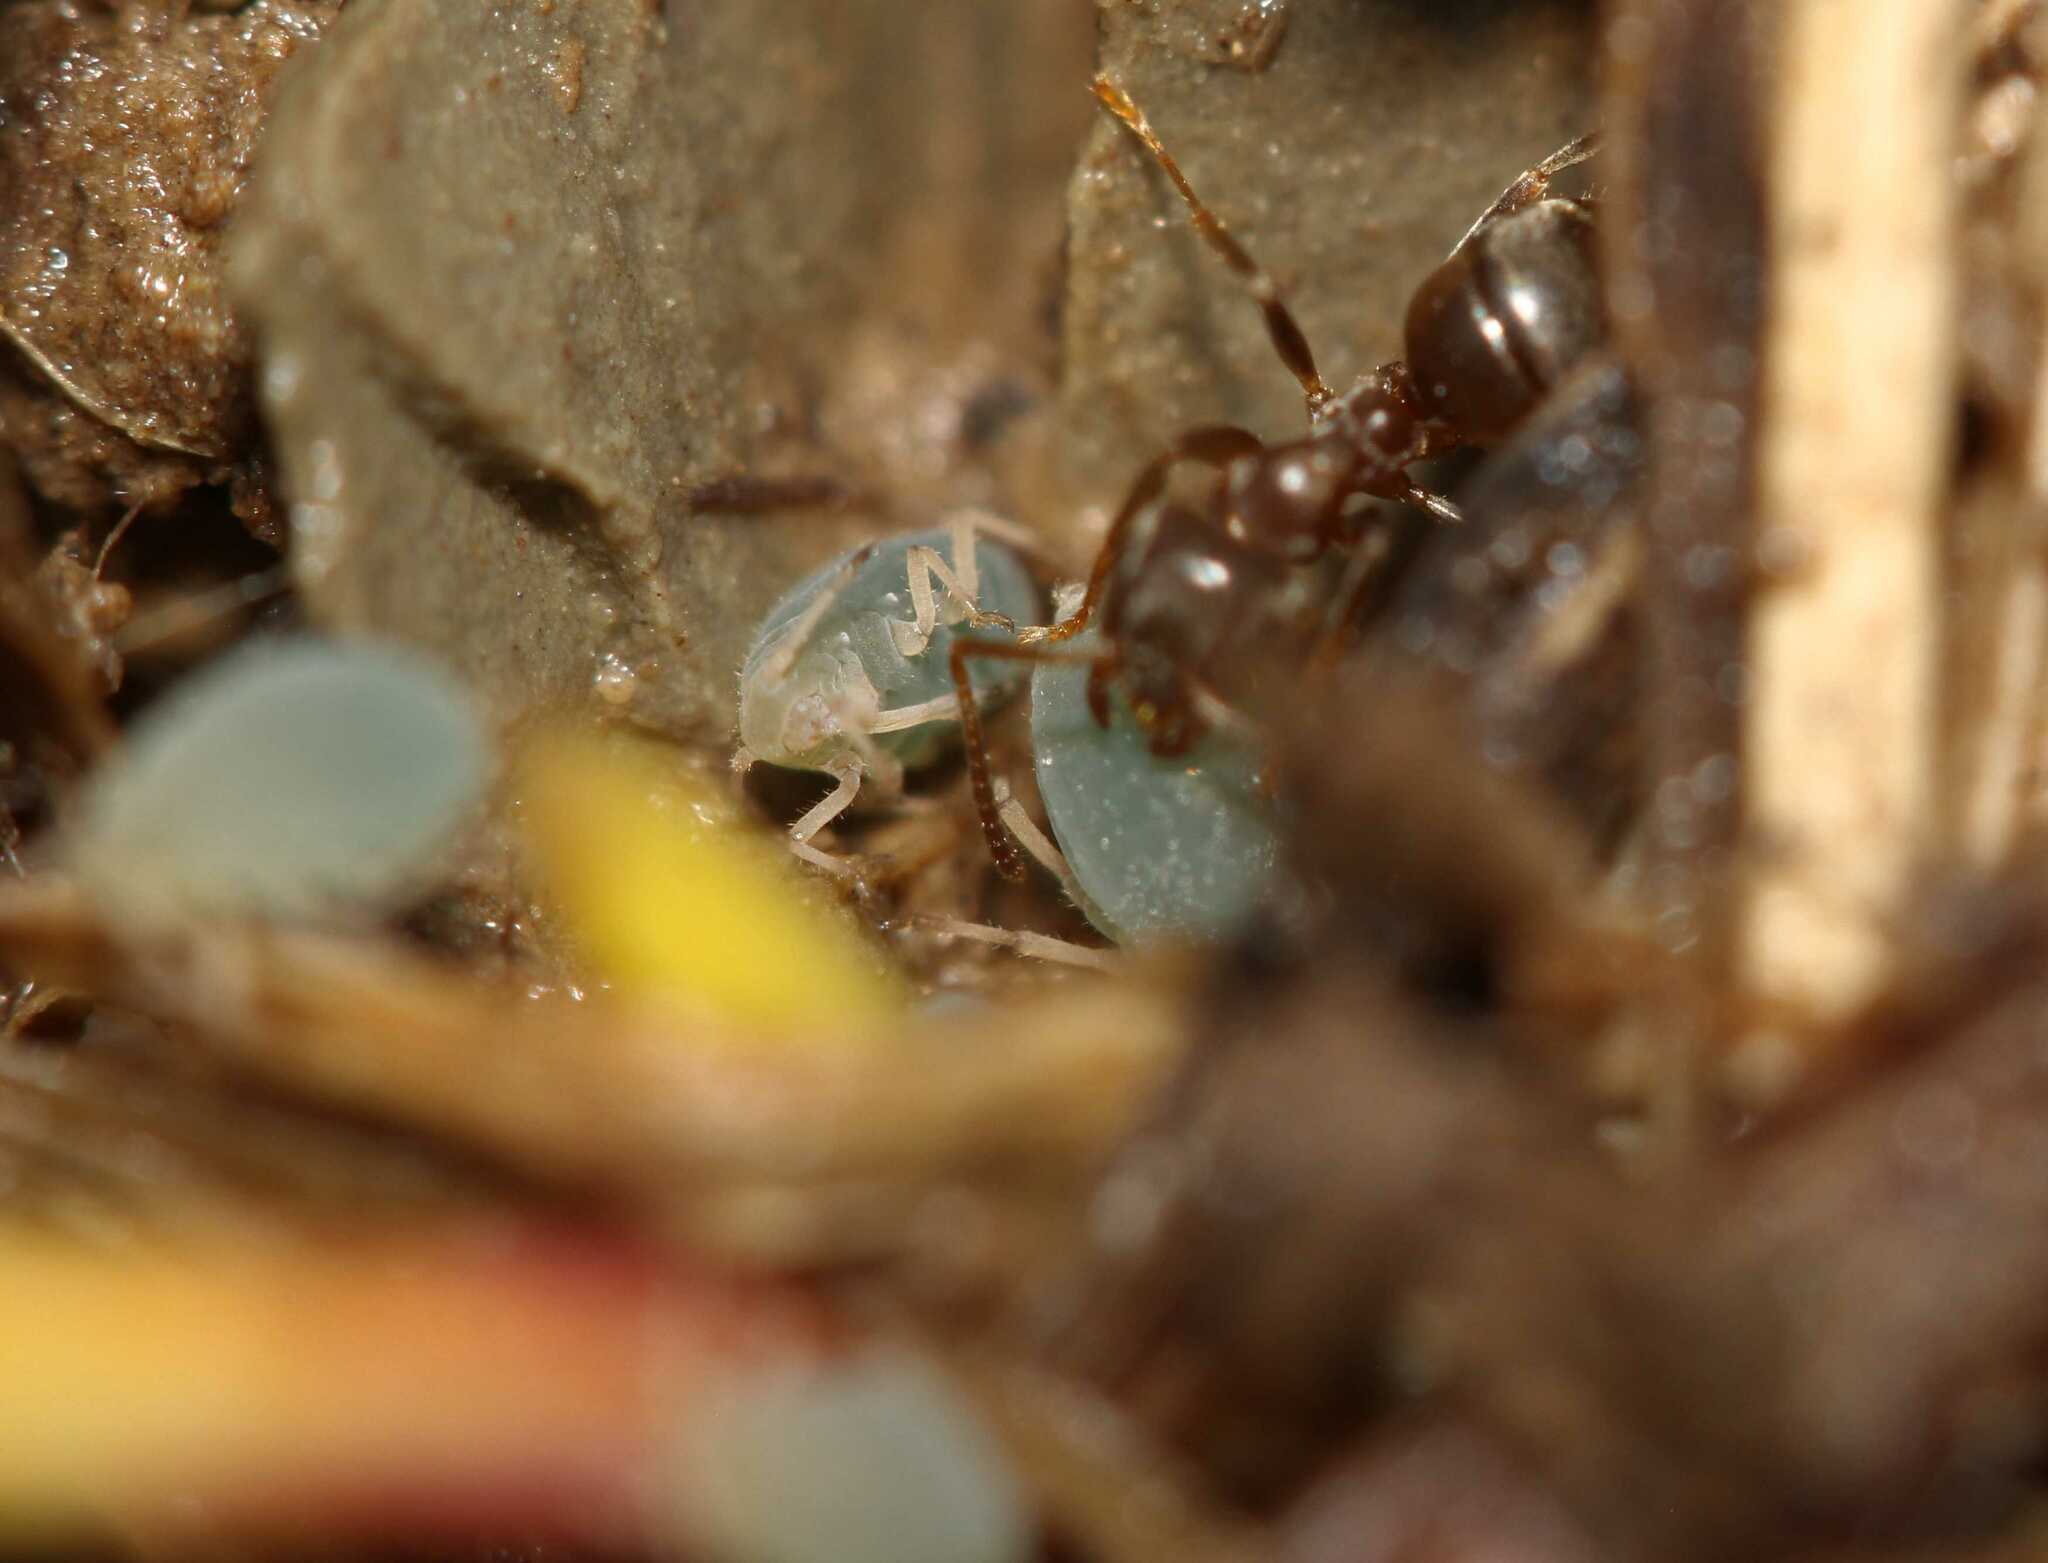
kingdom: Animalia
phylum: Arthropoda
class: Insecta
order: Hymenoptera
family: Formicidae
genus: Lasius
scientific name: Lasius
